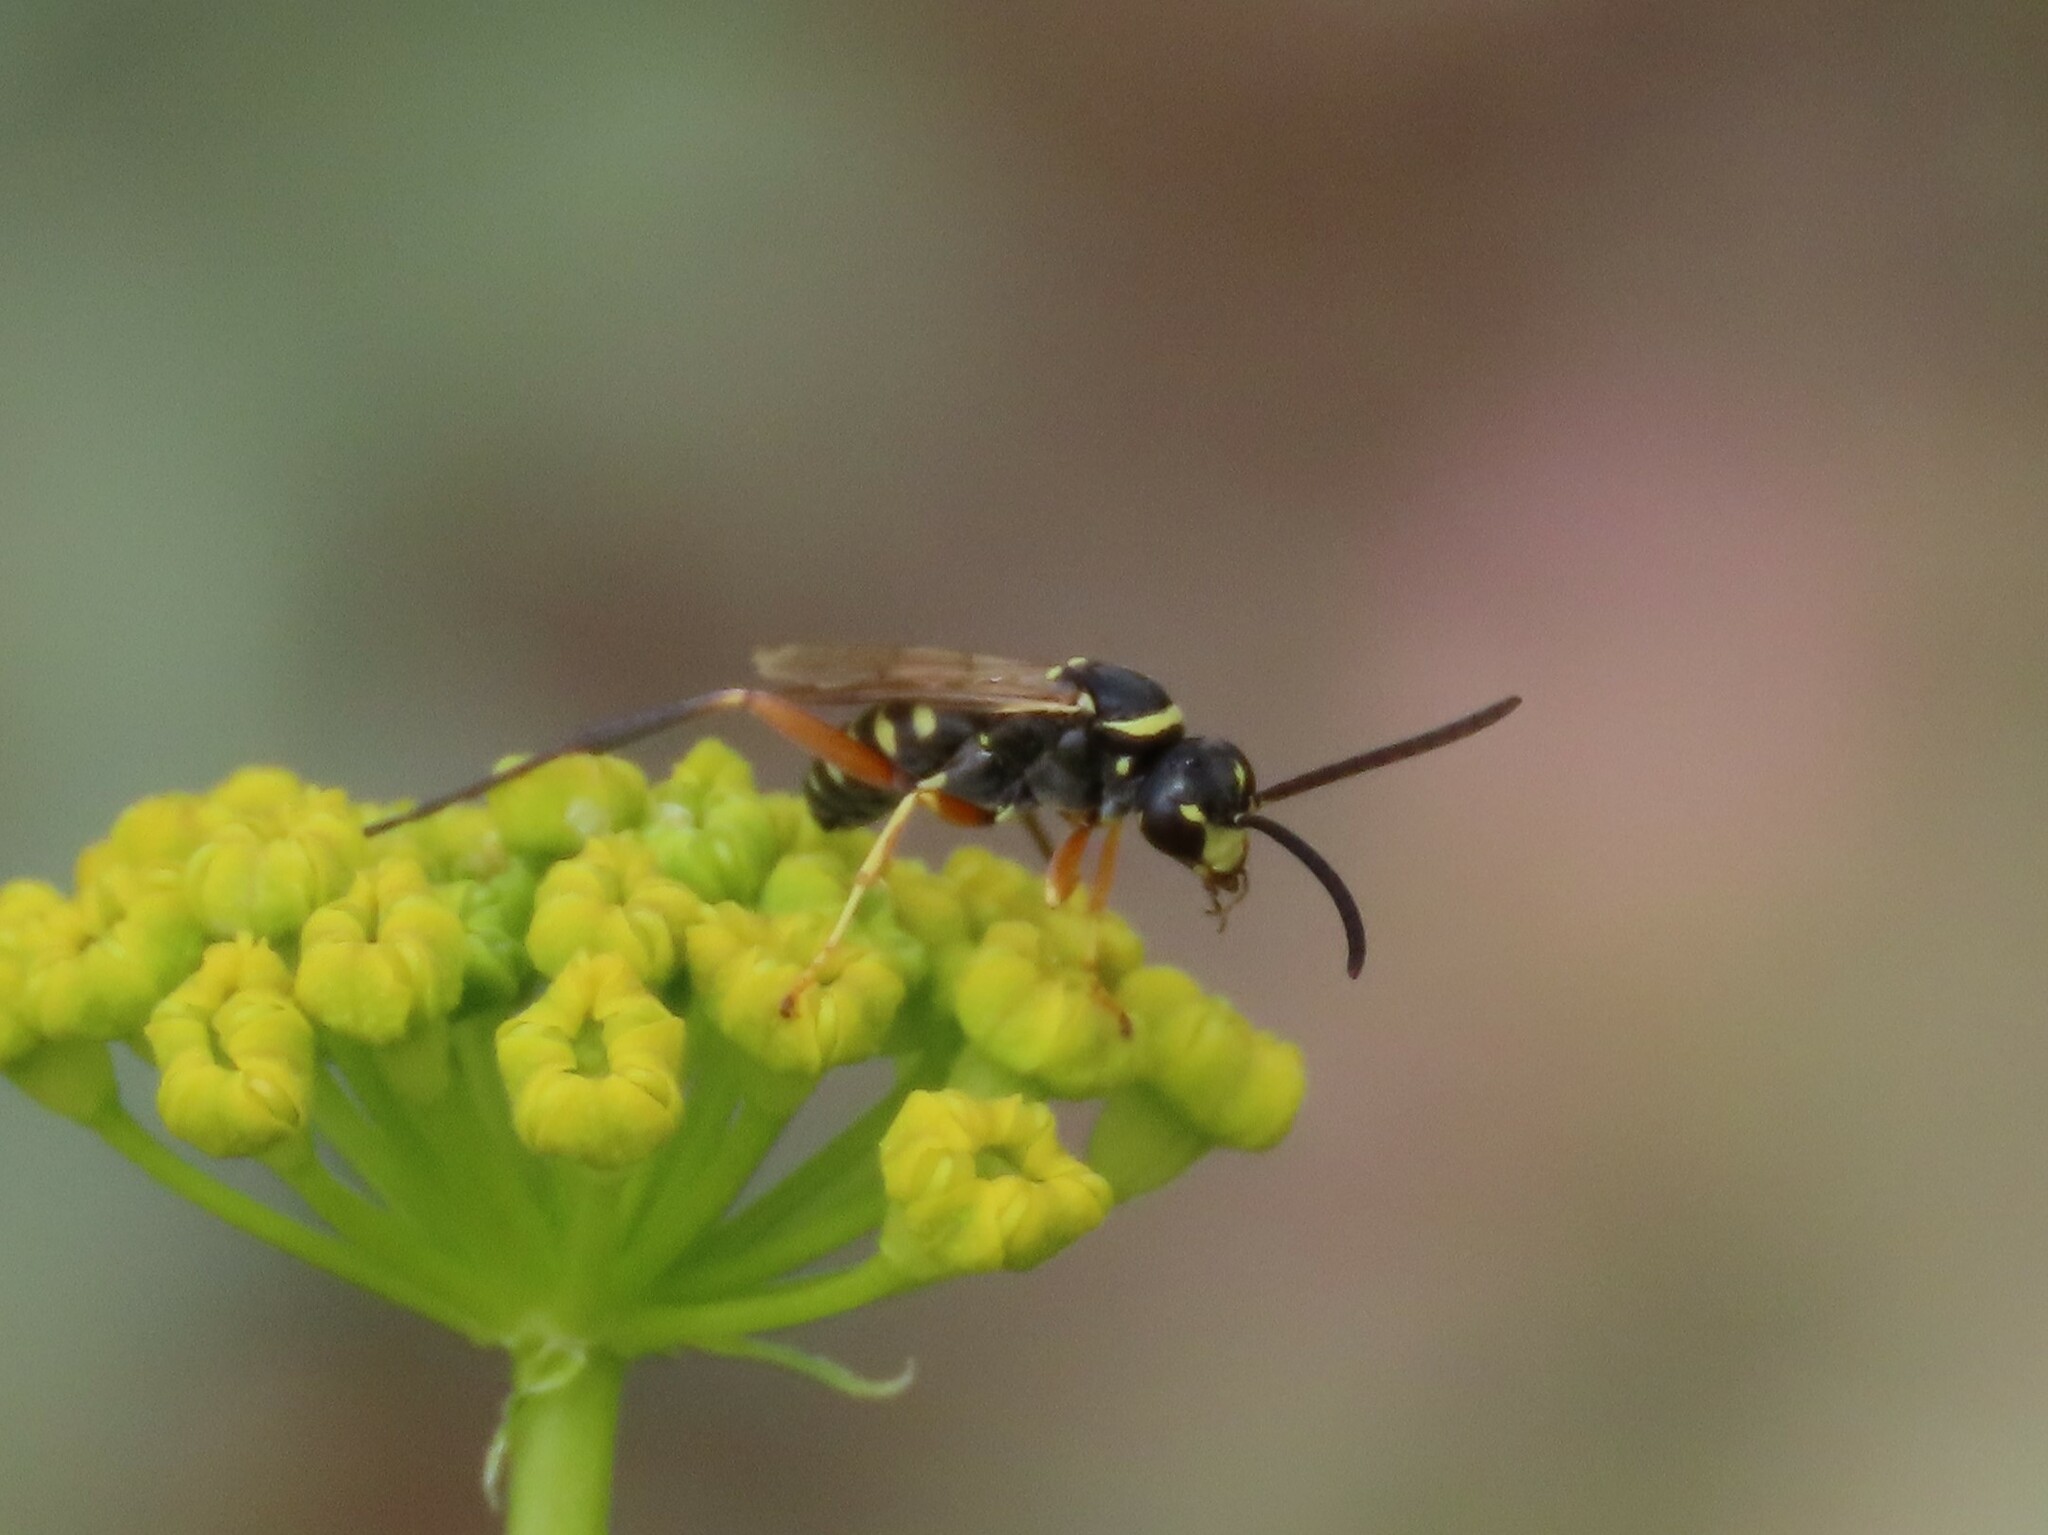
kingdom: Animalia
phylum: Arthropoda
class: Insecta
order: Hymenoptera
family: Pompilidae
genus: Ceropales
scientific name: Ceropales bipartita
